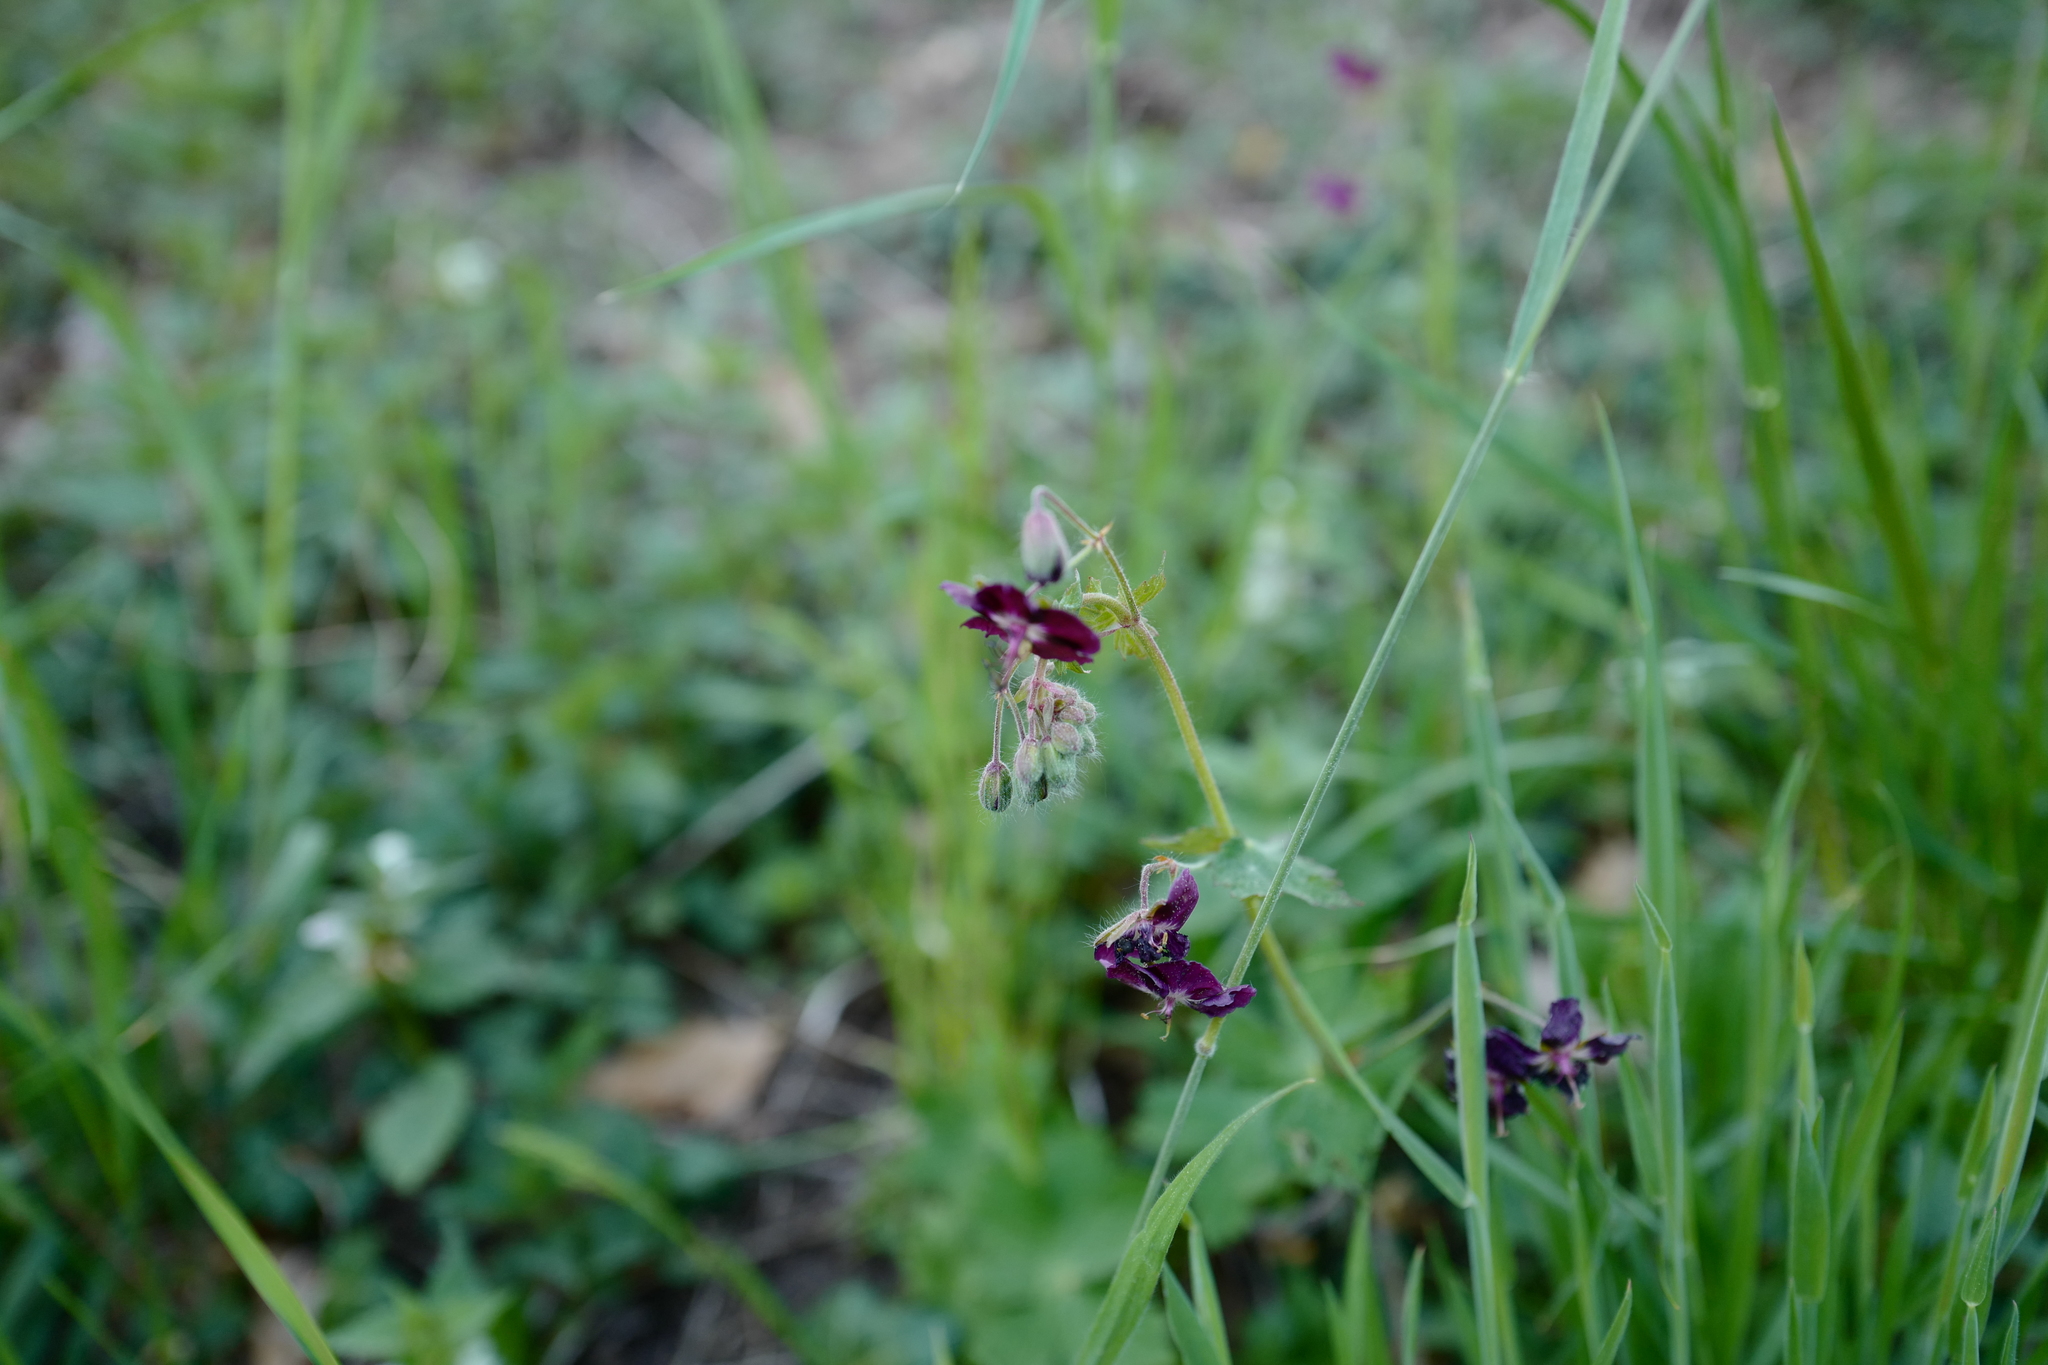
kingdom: Plantae
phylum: Tracheophyta
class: Magnoliopsida
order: Geraniales
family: Geraniaceae
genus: Geranium
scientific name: Geranium phaeum
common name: Dusky crane's-bill
